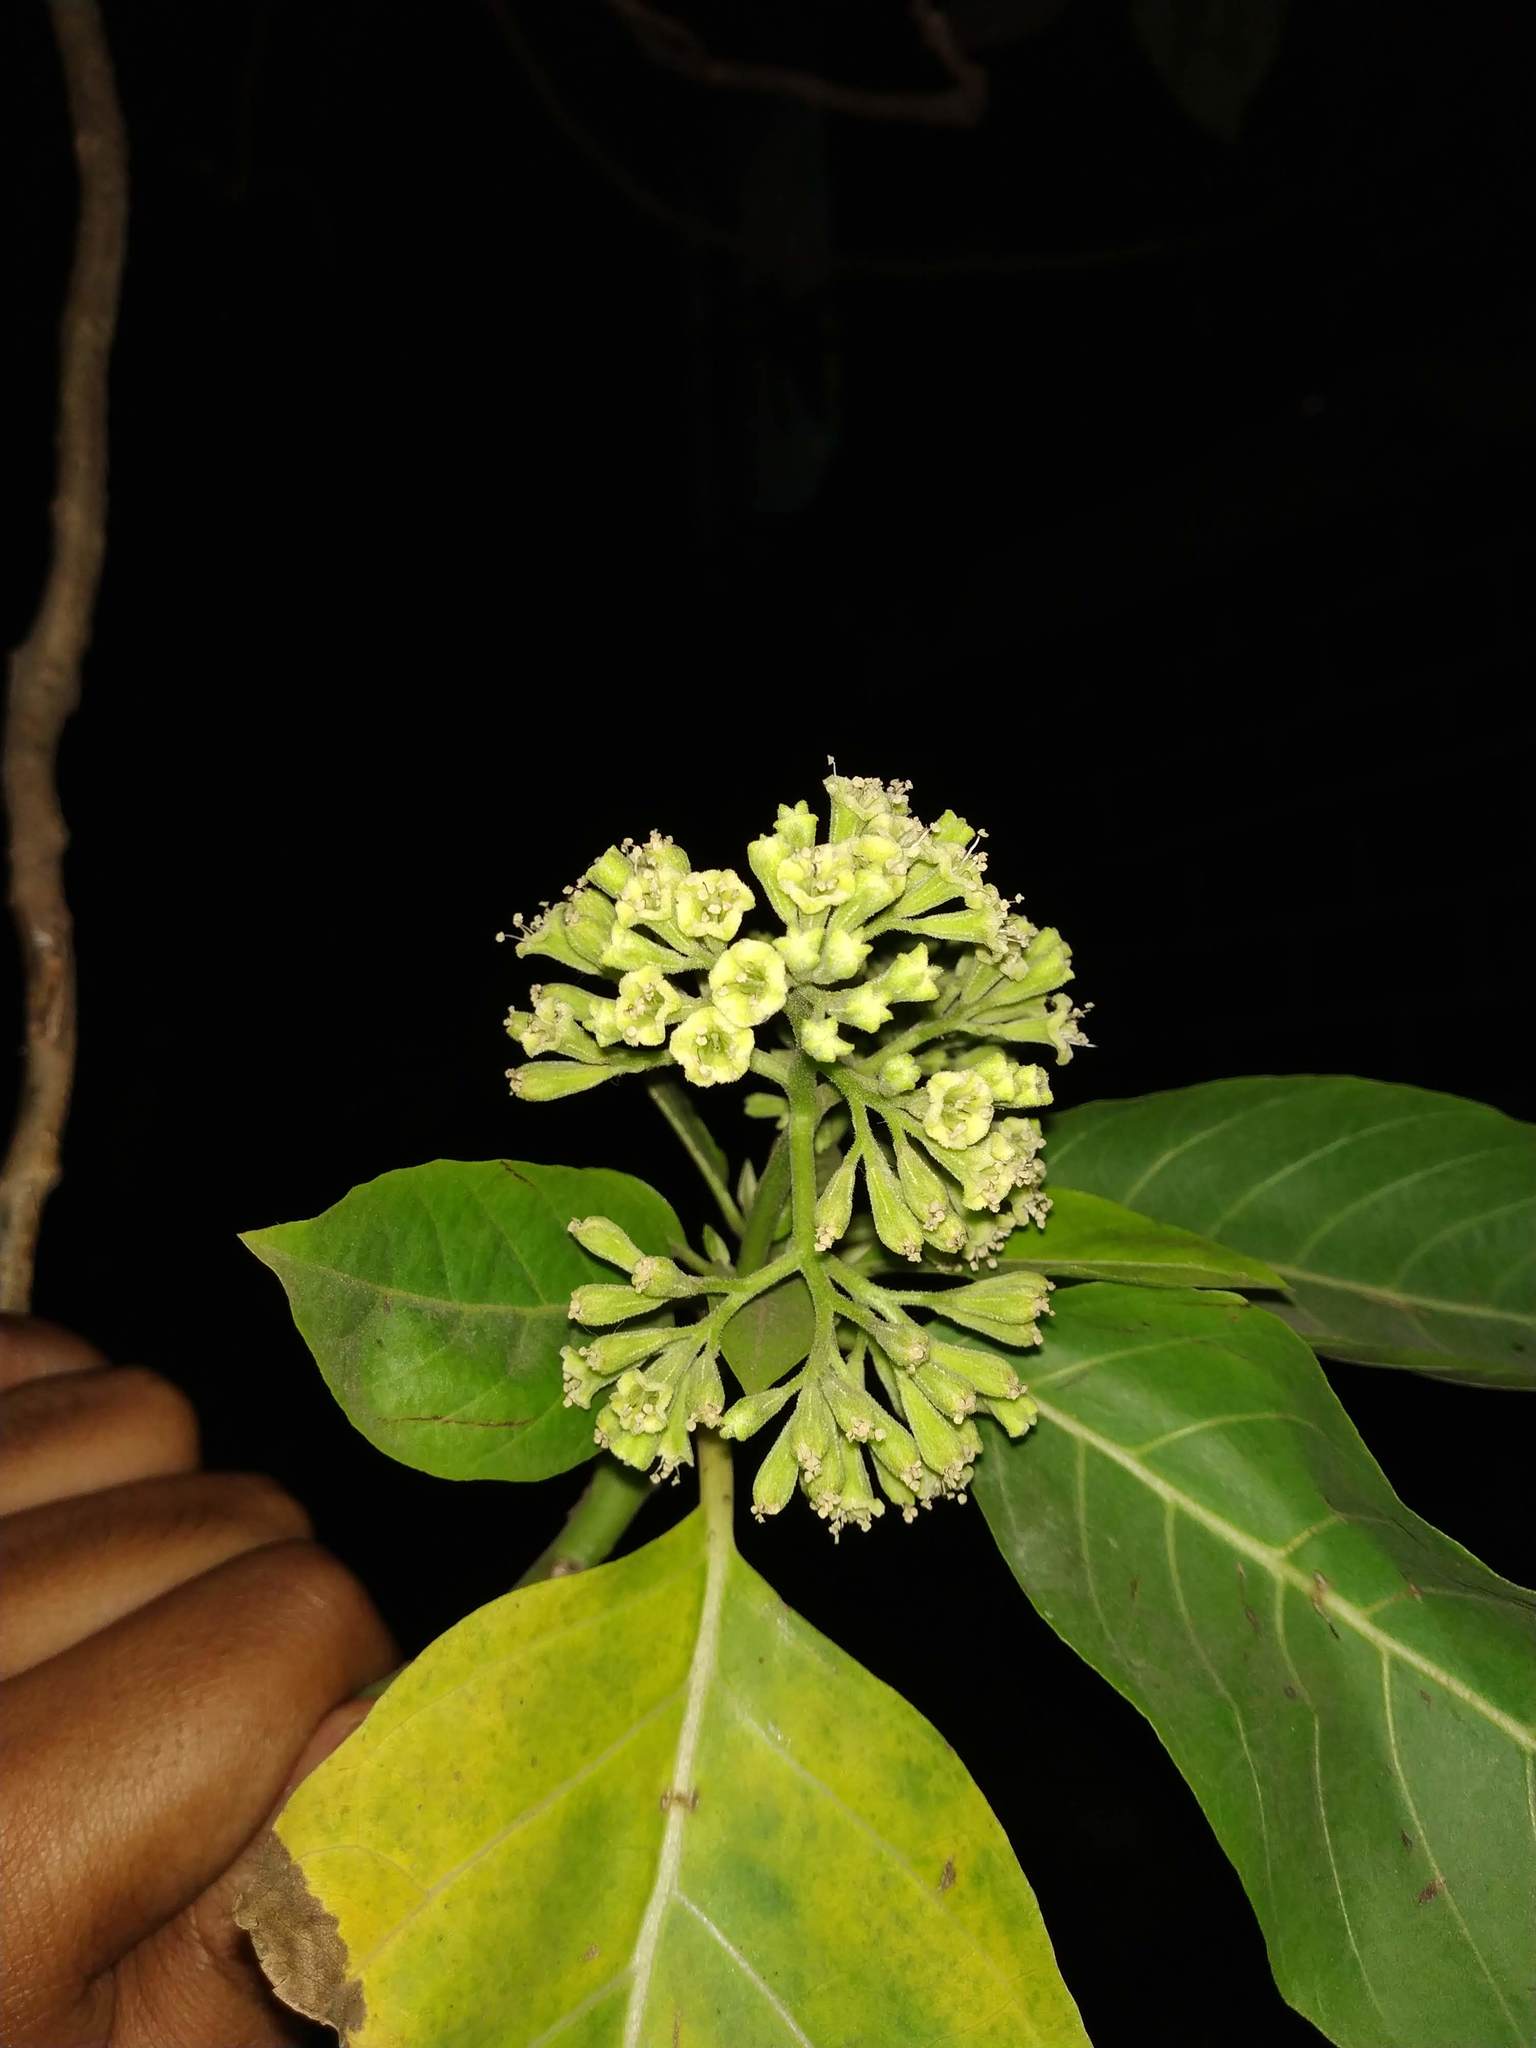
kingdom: Plantae
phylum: Tracheophyta
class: Magnoliopsida
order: Caryophyllales
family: Nyctaginaceae
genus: Ceodes
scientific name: Ceodes
